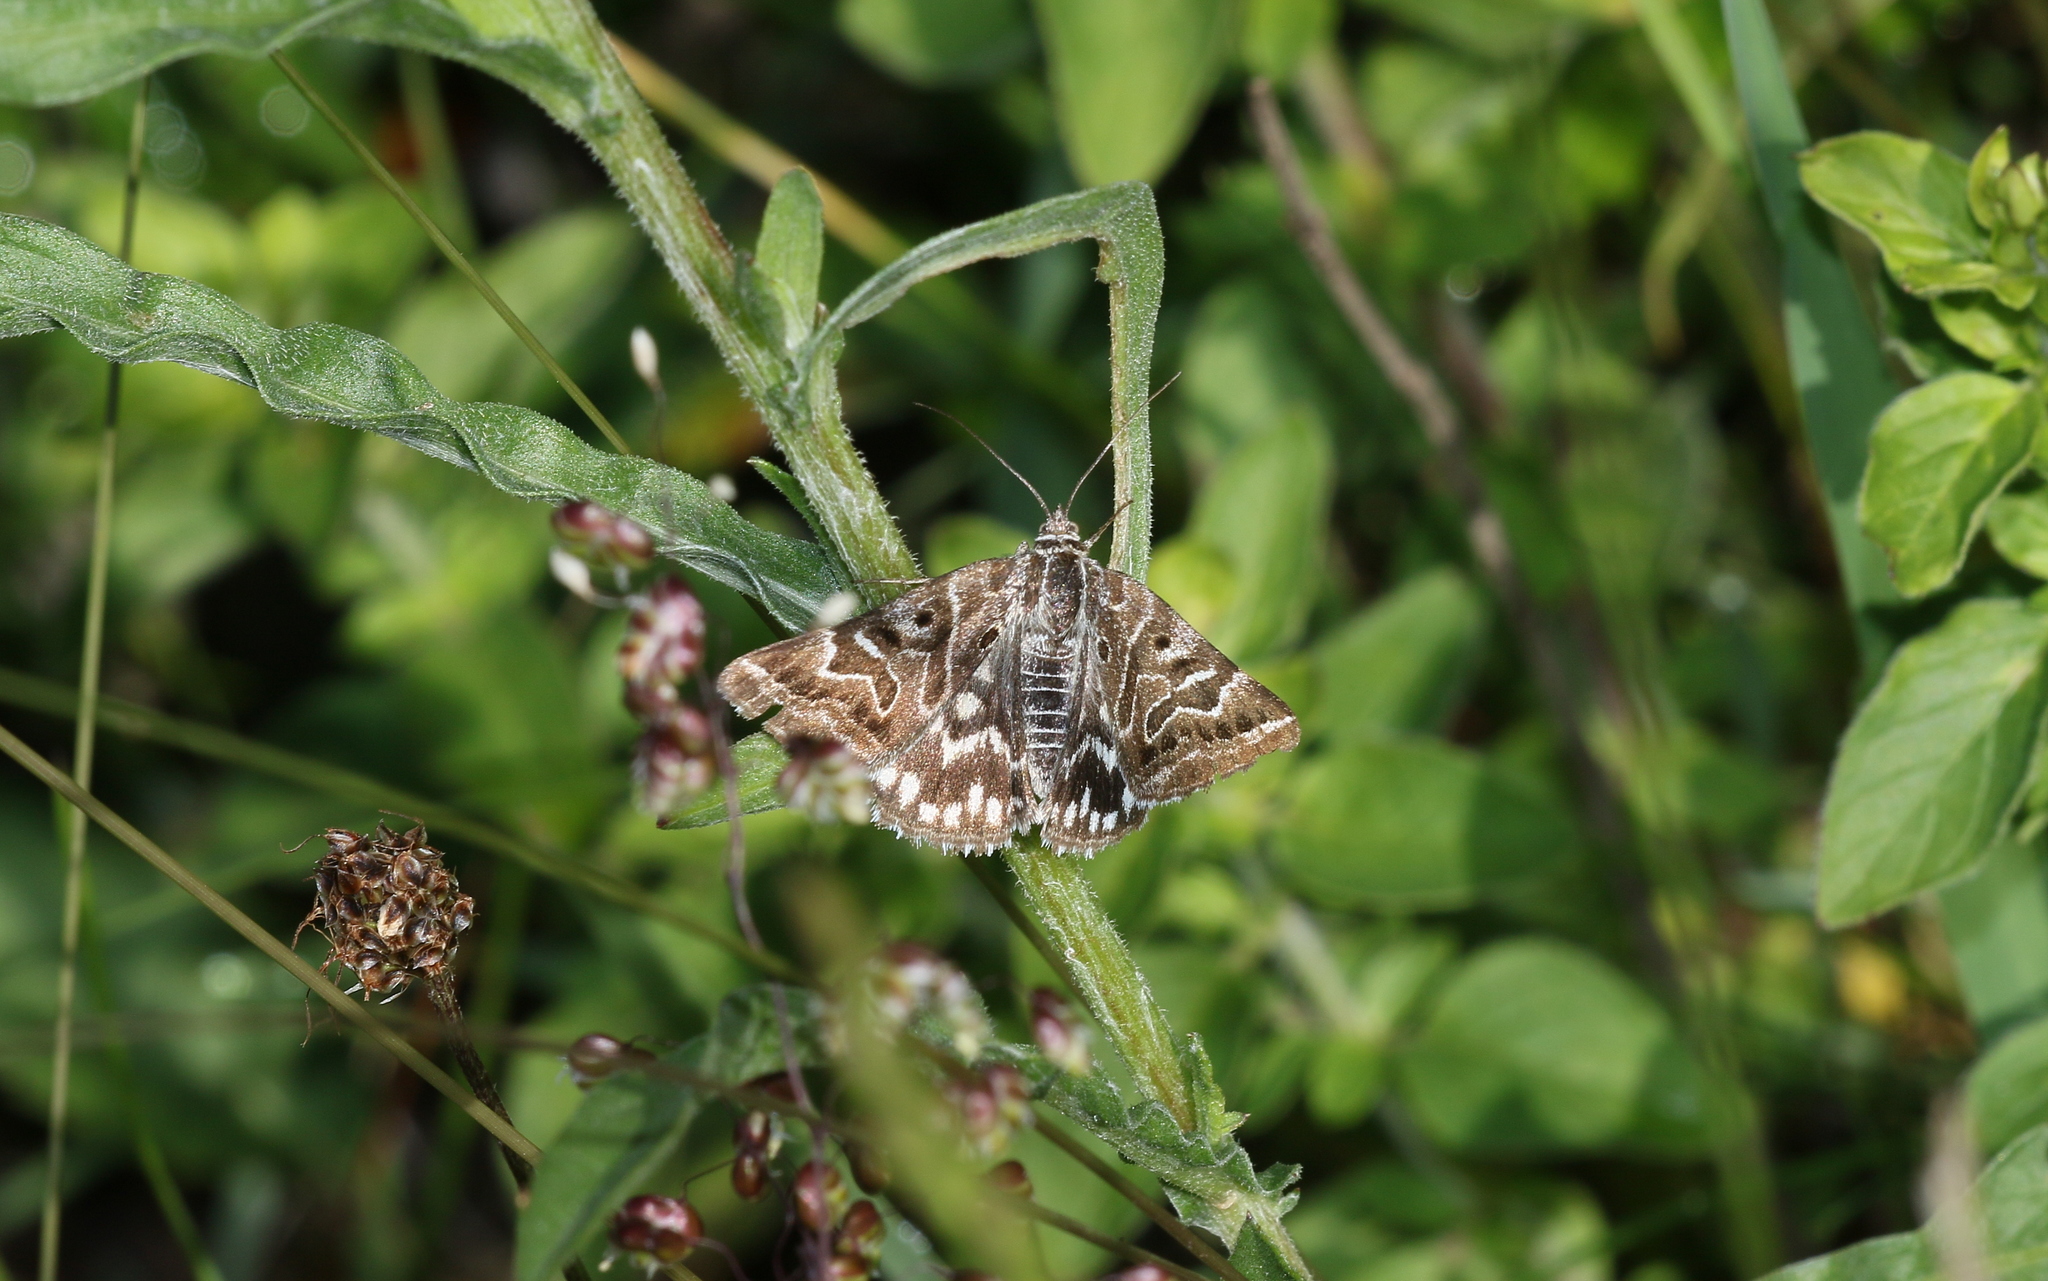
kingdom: Animalia
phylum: Arthropoda
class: Insecta
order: Lepidoptera
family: Erebidae
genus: Callistege
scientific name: Callistege mi
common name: Mother shipton
